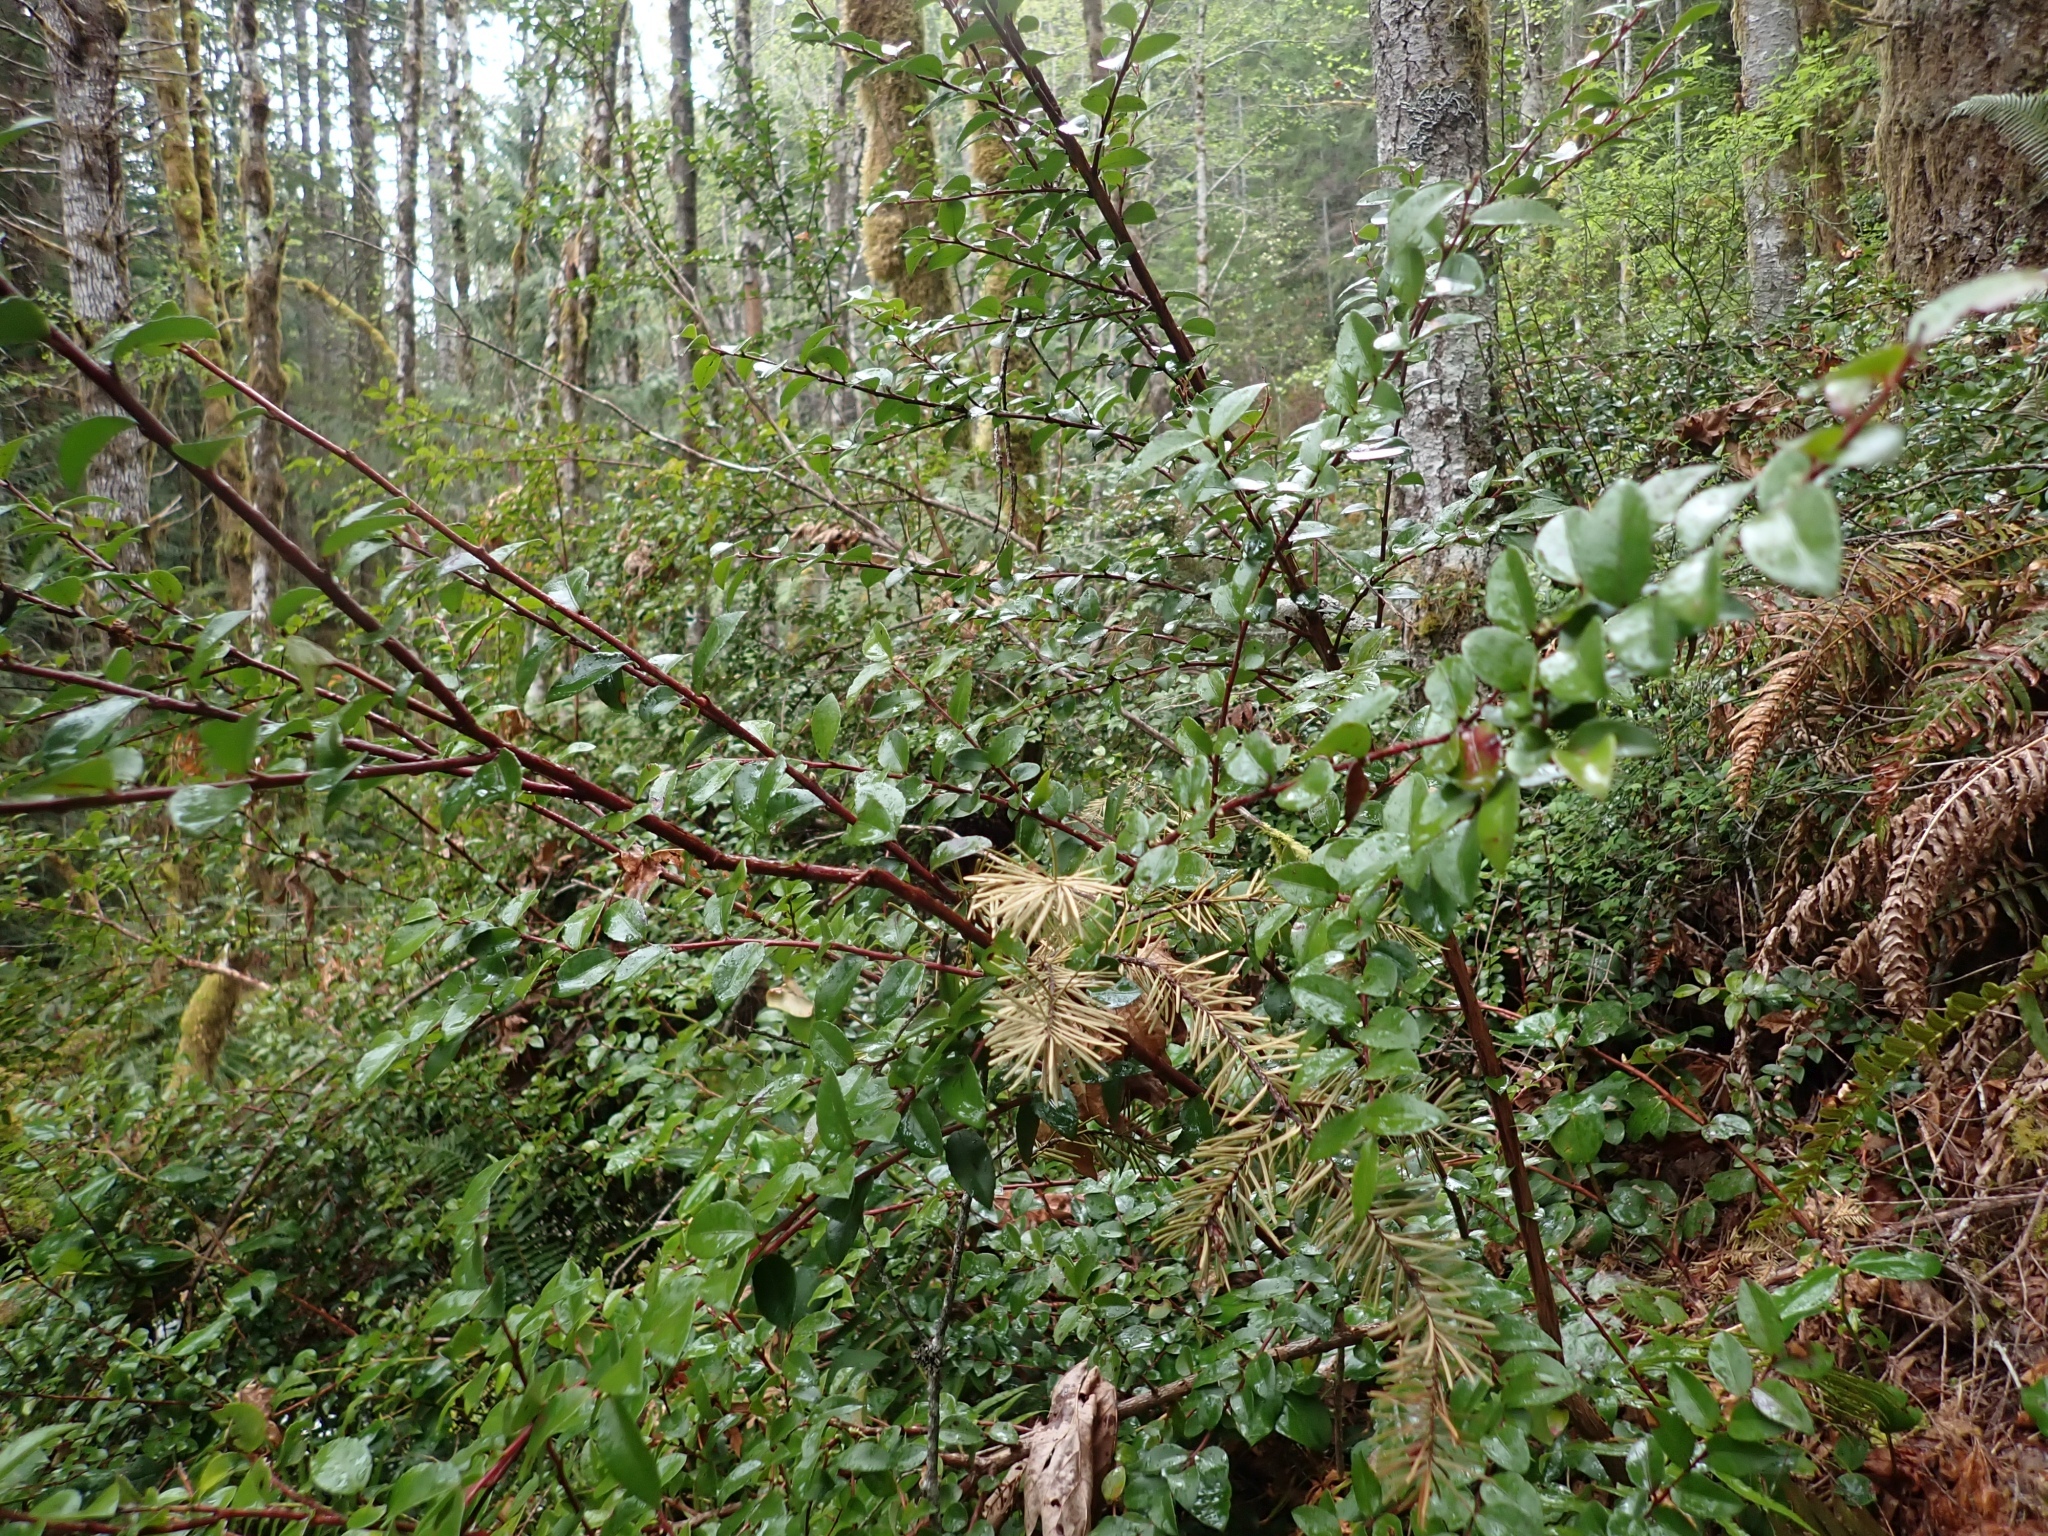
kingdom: Plantae
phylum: Tracheophyta
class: Magnoliopsida
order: Ericales
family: Ericaceae
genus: Vaccinium
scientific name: Vaccinium ovatum
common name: California-huckleberry
